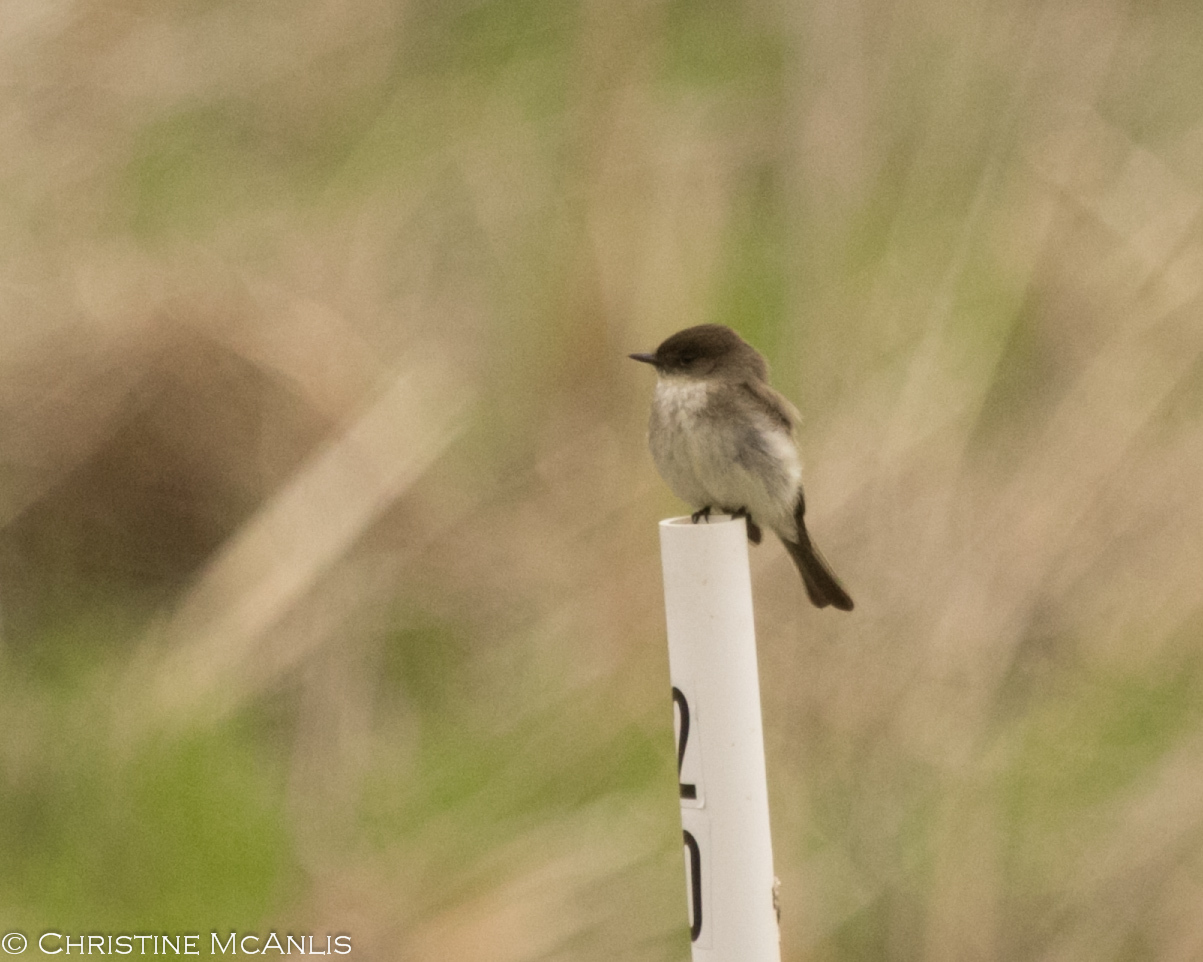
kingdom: Animalia
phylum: Chordata
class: Aves
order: Passeriformes
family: Tyrannidae
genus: Sayornis
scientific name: Sayornis phoebe
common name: Eastern phoebe
